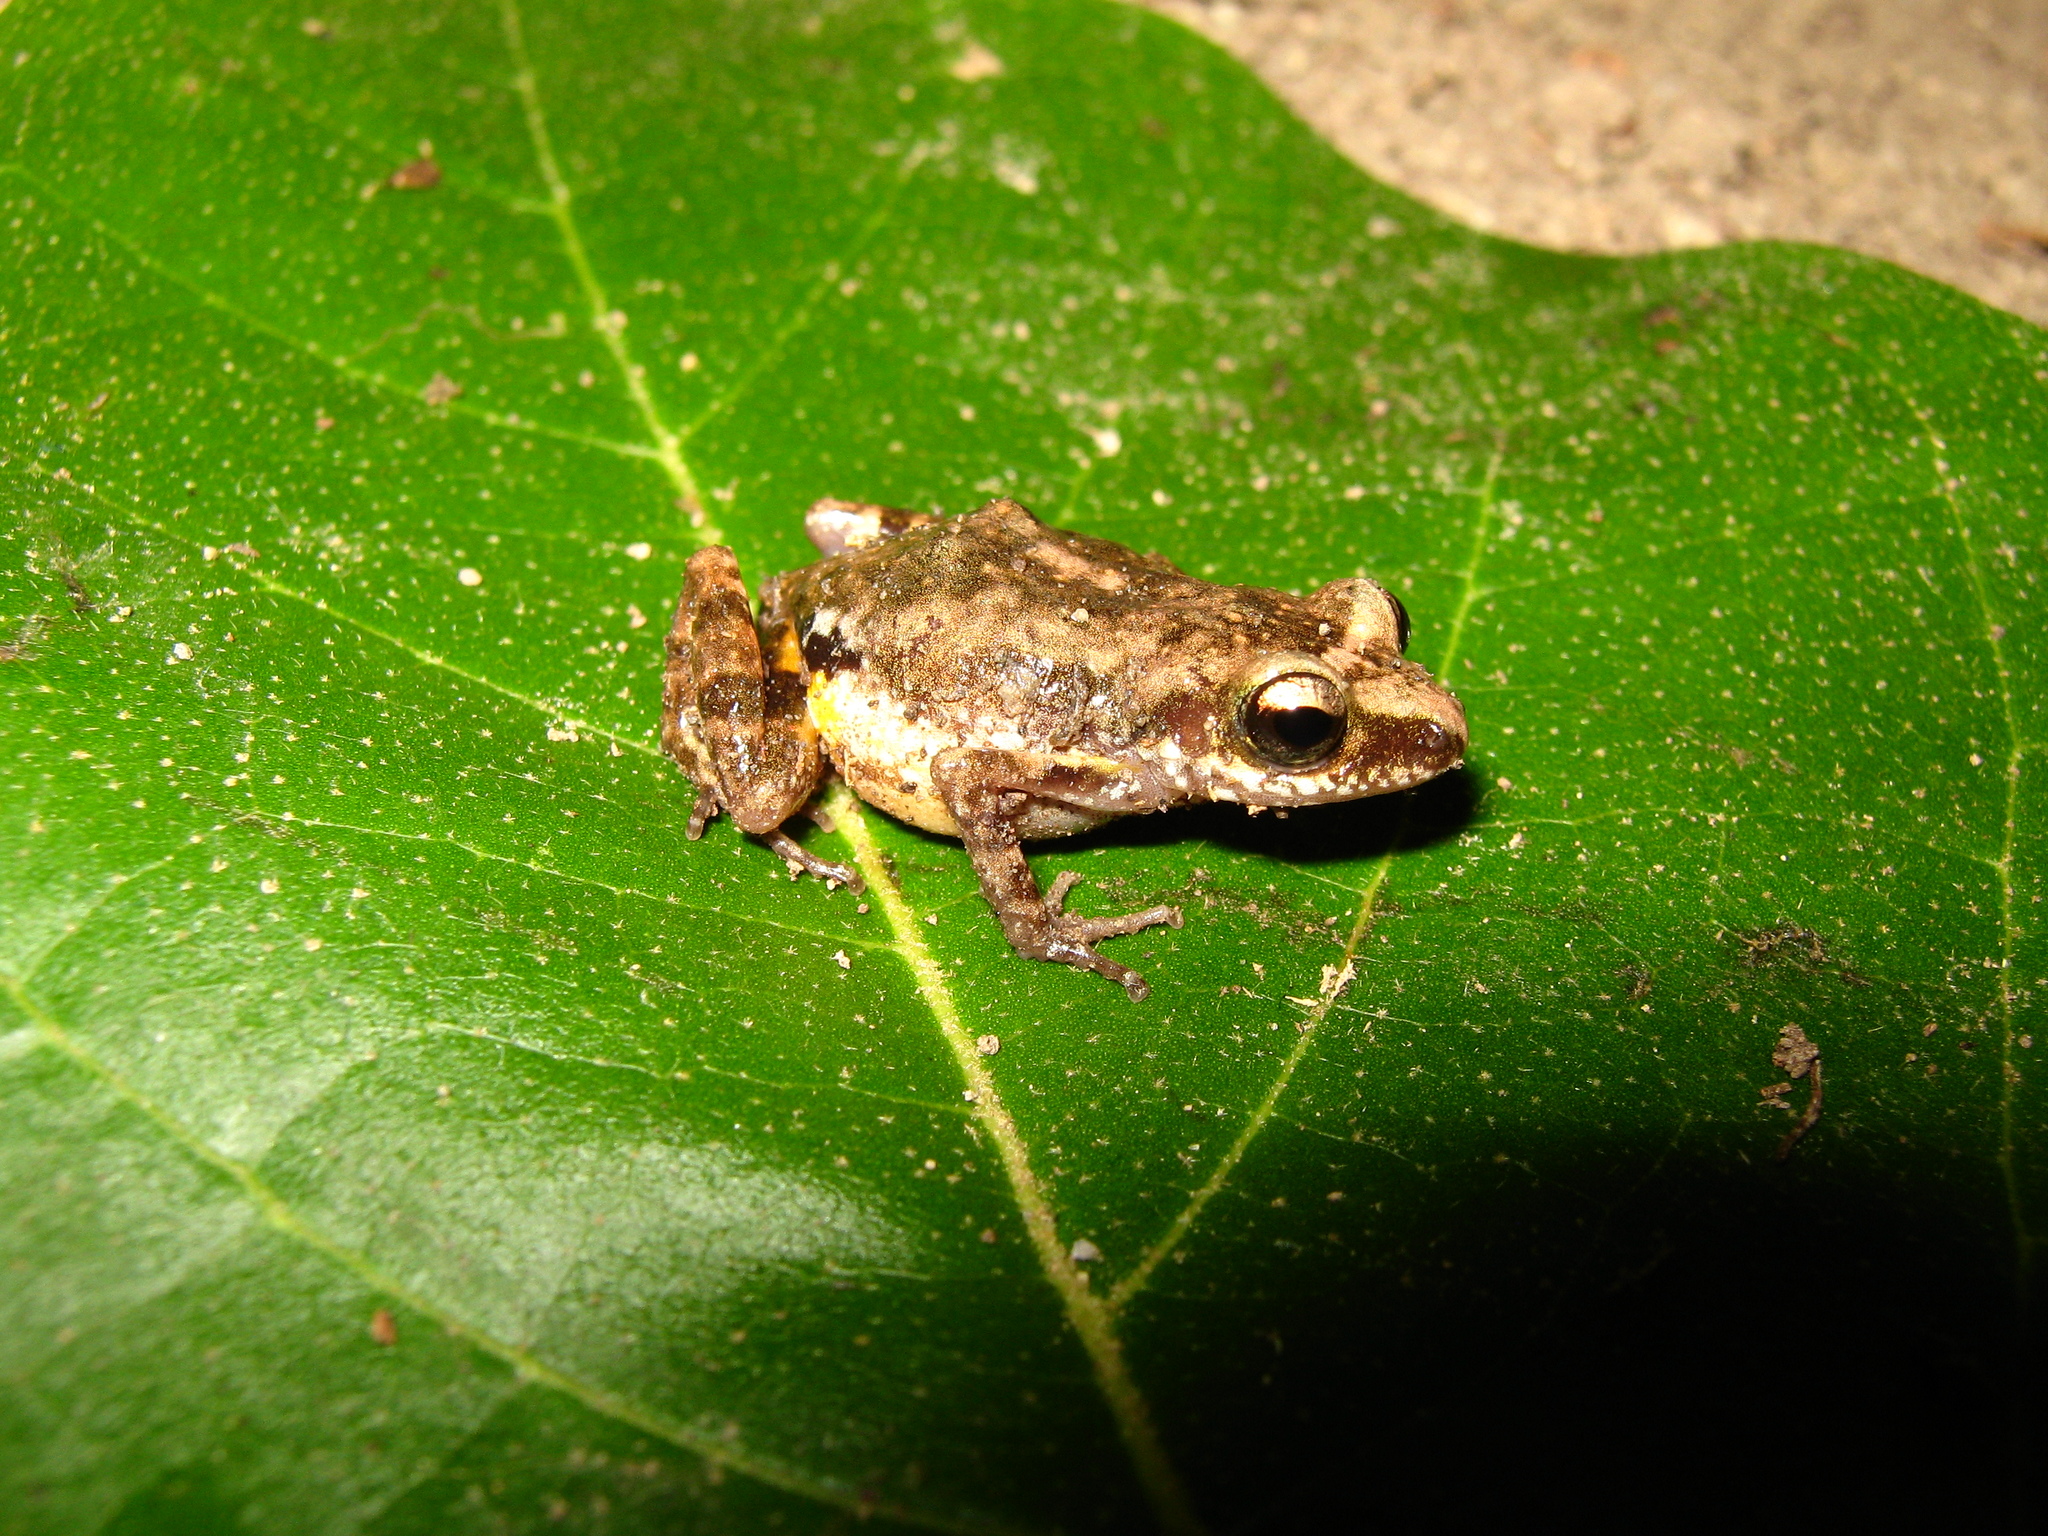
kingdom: Animalia
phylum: Chordata
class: Amphibia
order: Anura
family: Eleutherodactylidae
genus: Eleutherodactylus
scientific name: Eleutherodactylus orarius
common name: Colima shiny peeping frog
